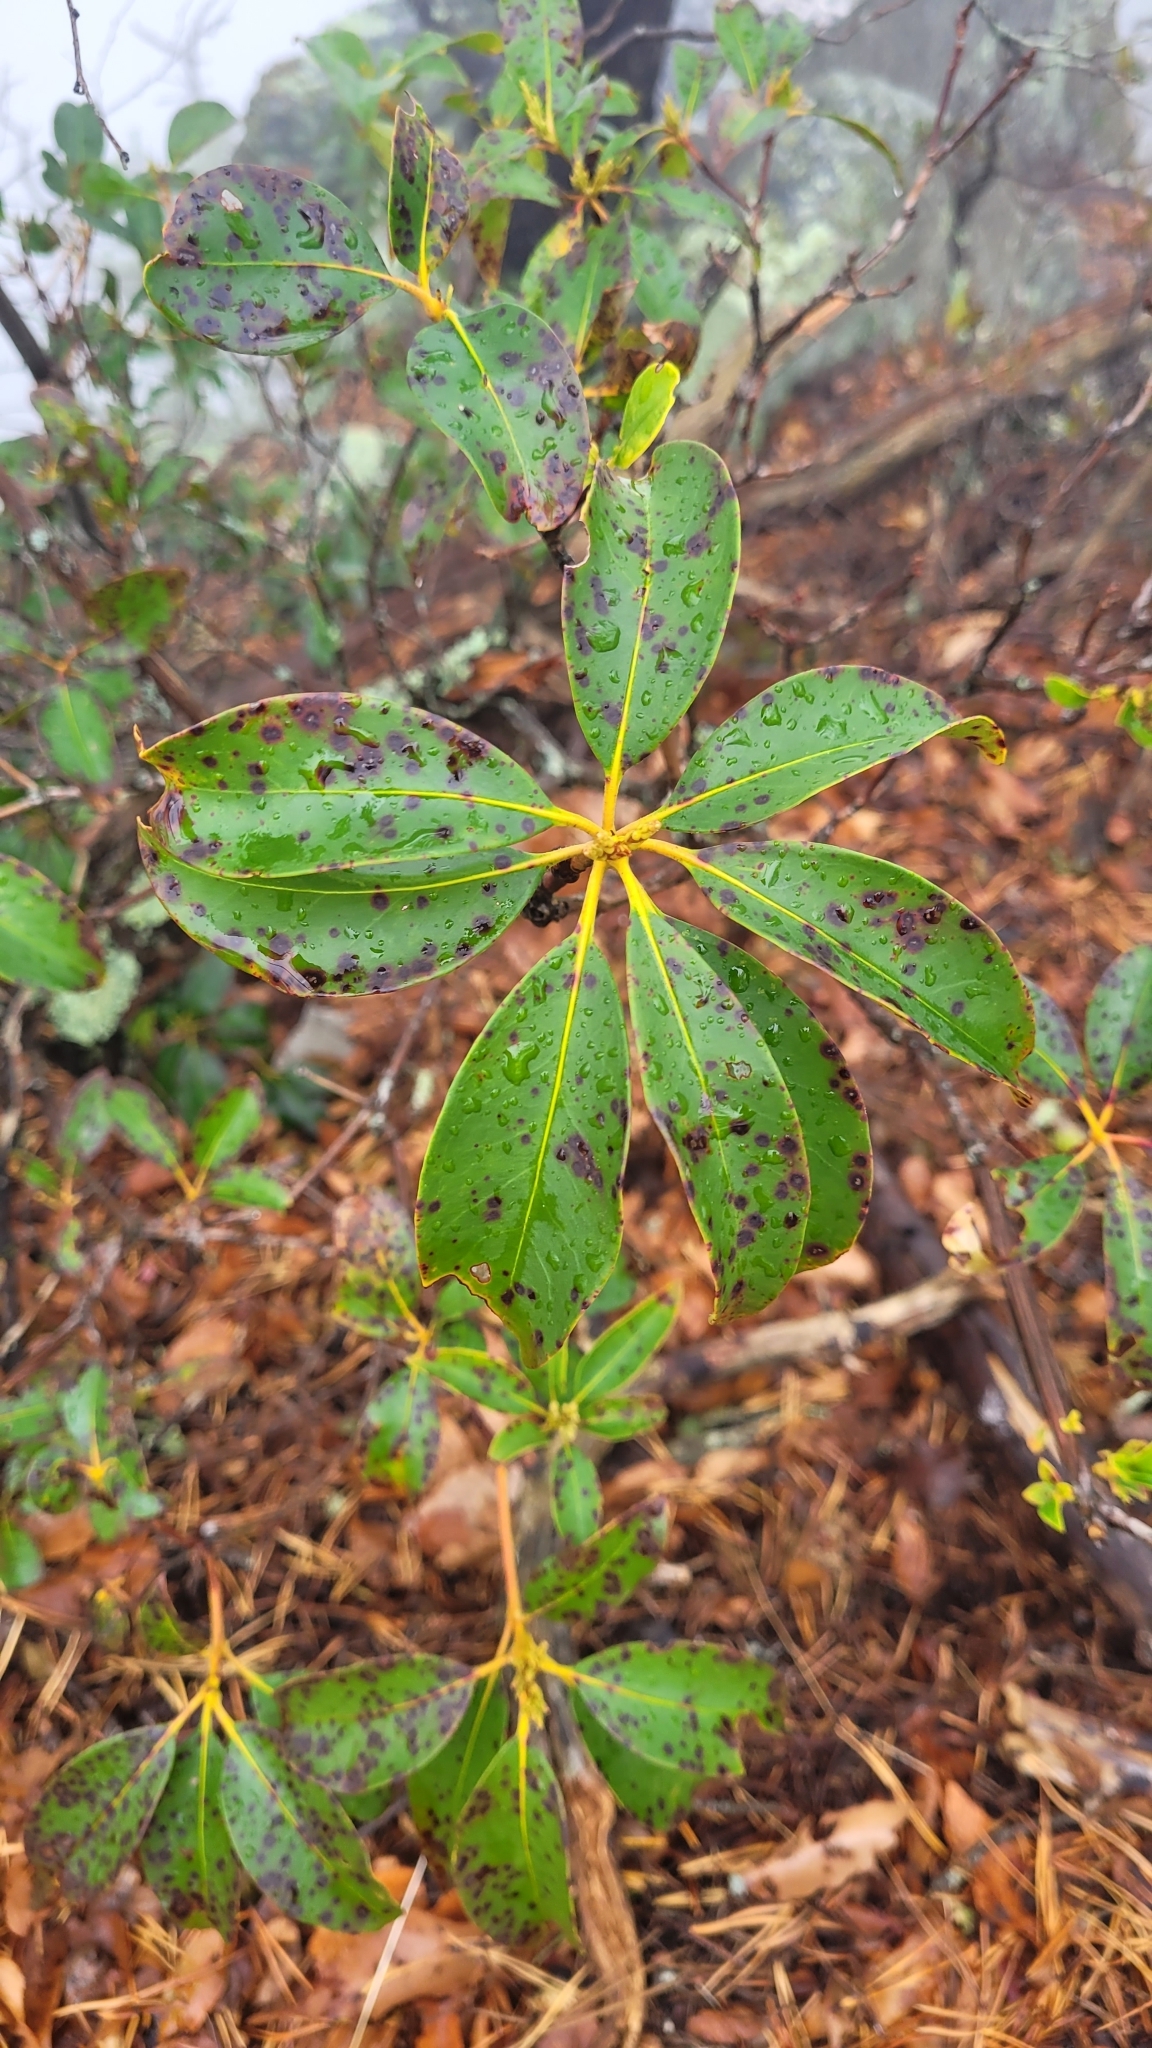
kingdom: Plantae
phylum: Tracheophyta
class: Magnoliopsida
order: Ericales
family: Ericaceae
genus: Kalmia
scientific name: Kalmia latifolia
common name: Mountain-laurel
